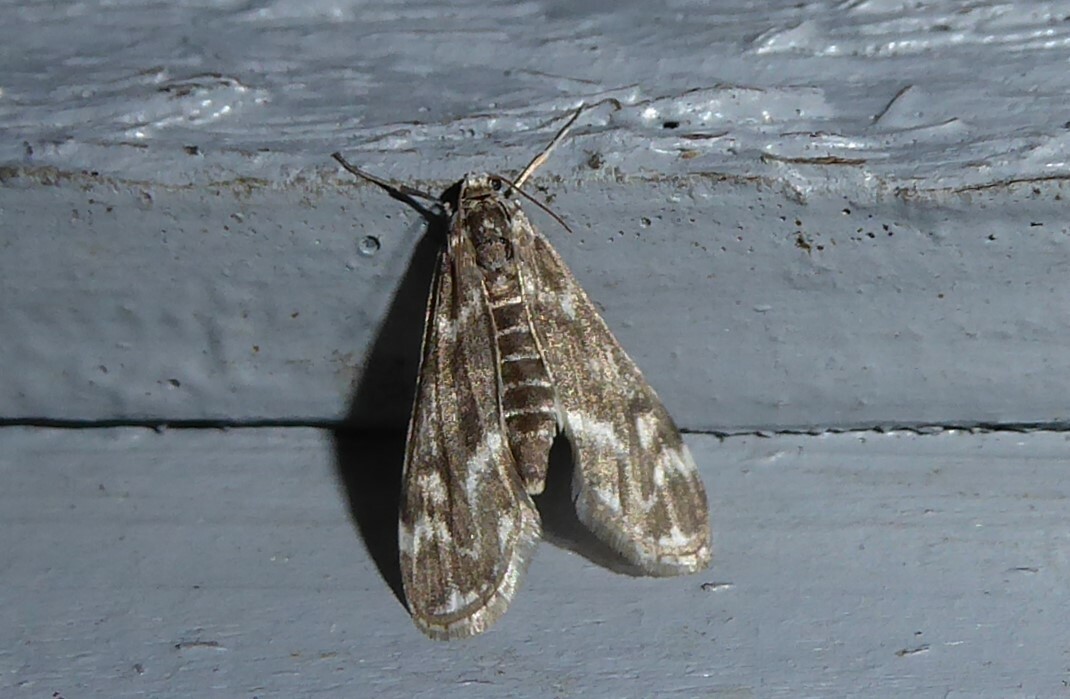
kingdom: Animalia
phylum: Arthropoda
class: Insecta
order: Lepidoptera
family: Crambidae
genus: Hygraula
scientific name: Hygraula nitens
